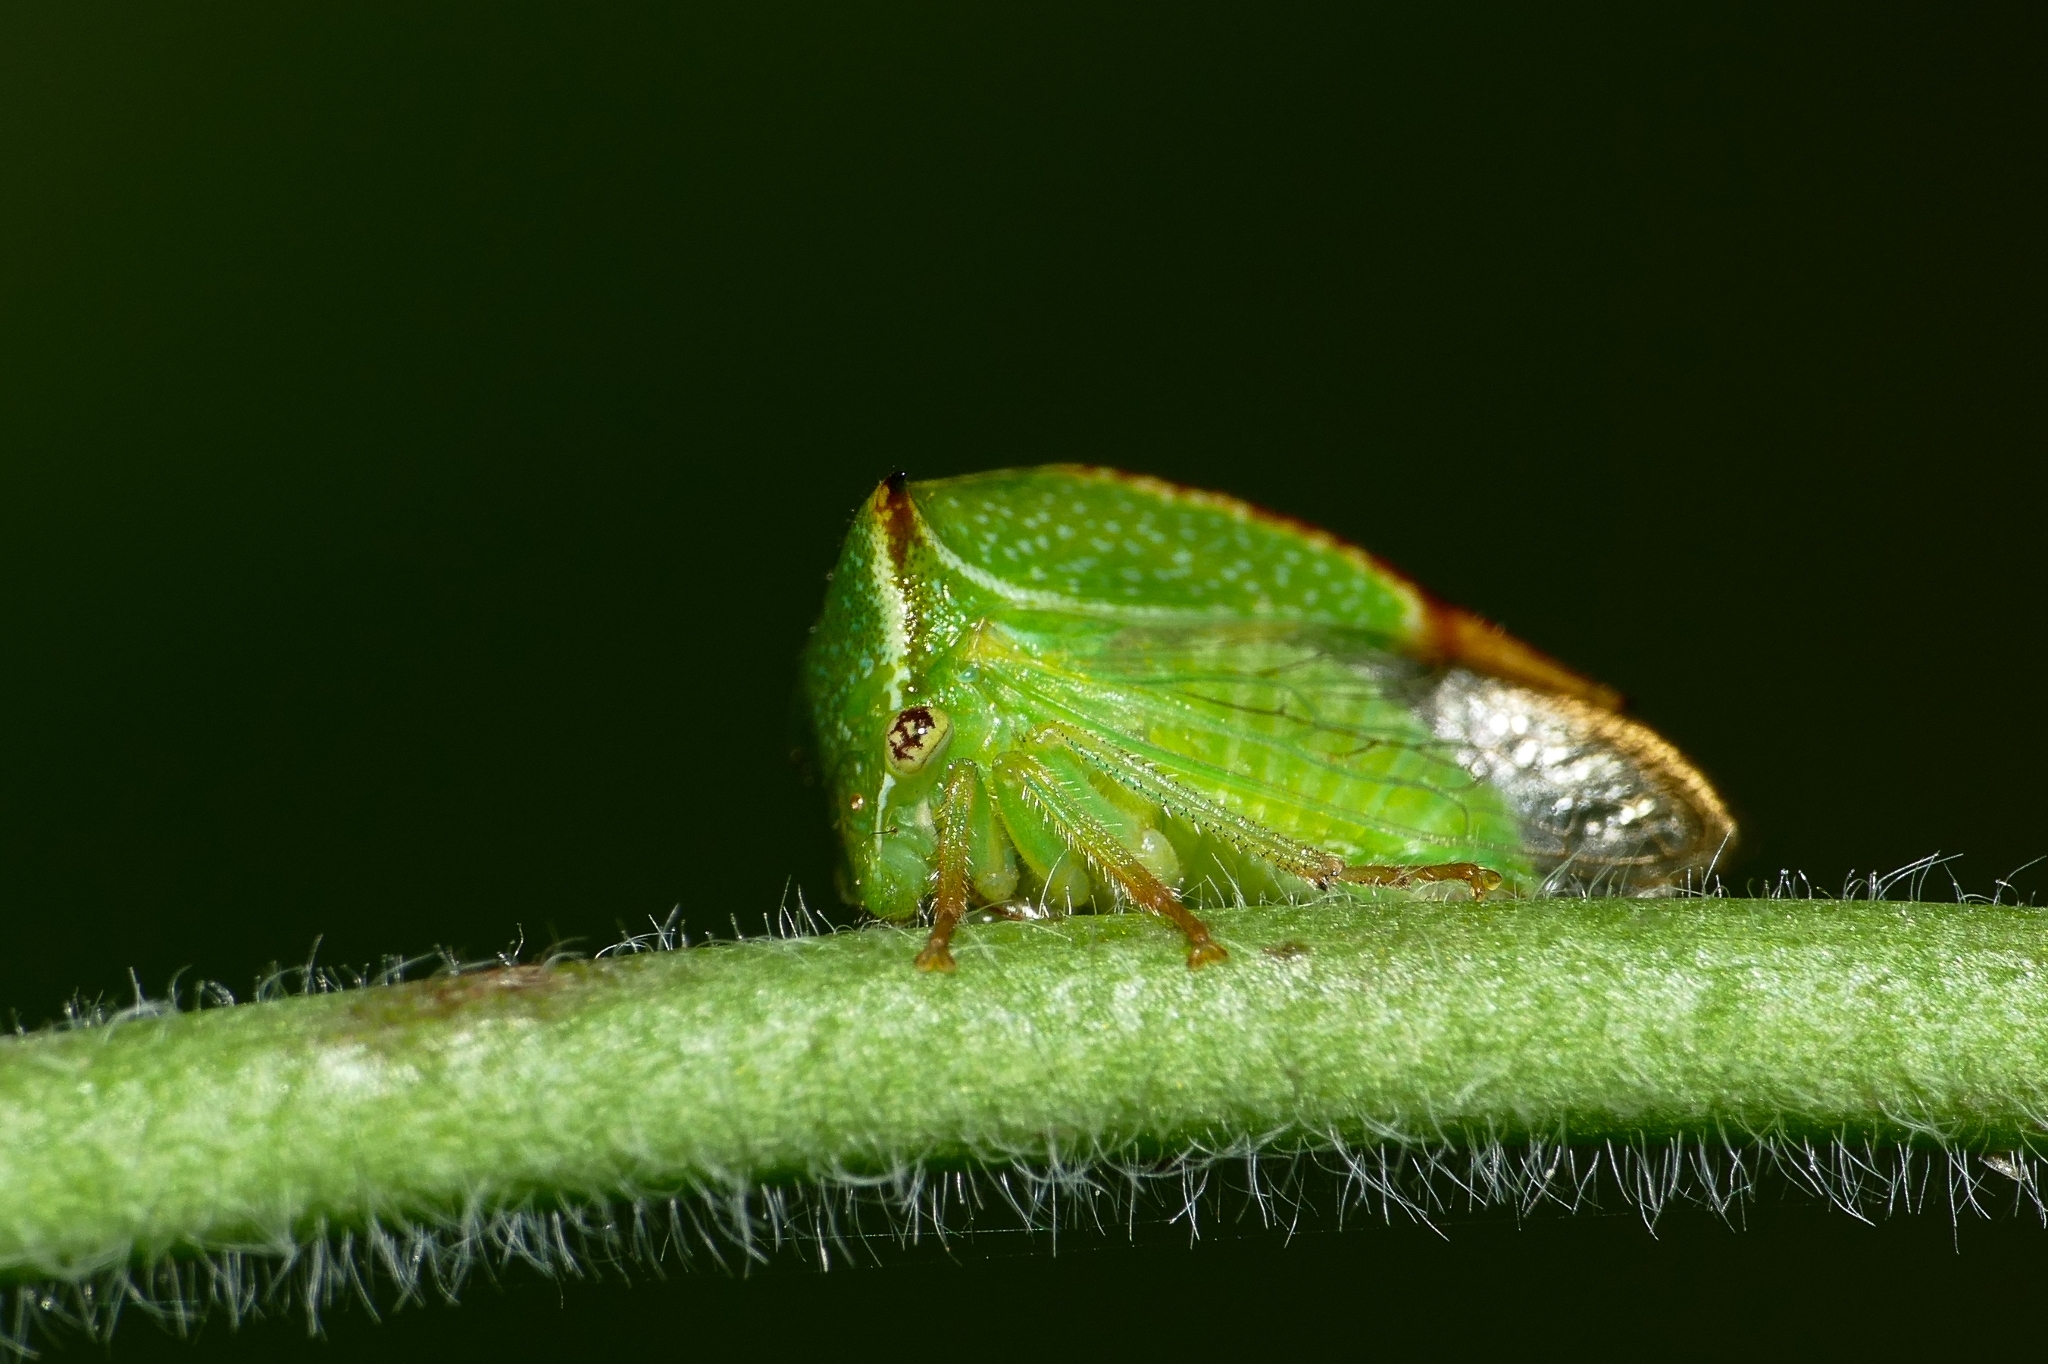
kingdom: Animalia
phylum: Arthropoda
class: Insecta
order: Hemiptera
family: Membracidae
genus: Stictocephala
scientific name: Stictocephala bisonia
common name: American buffalo treehopper
